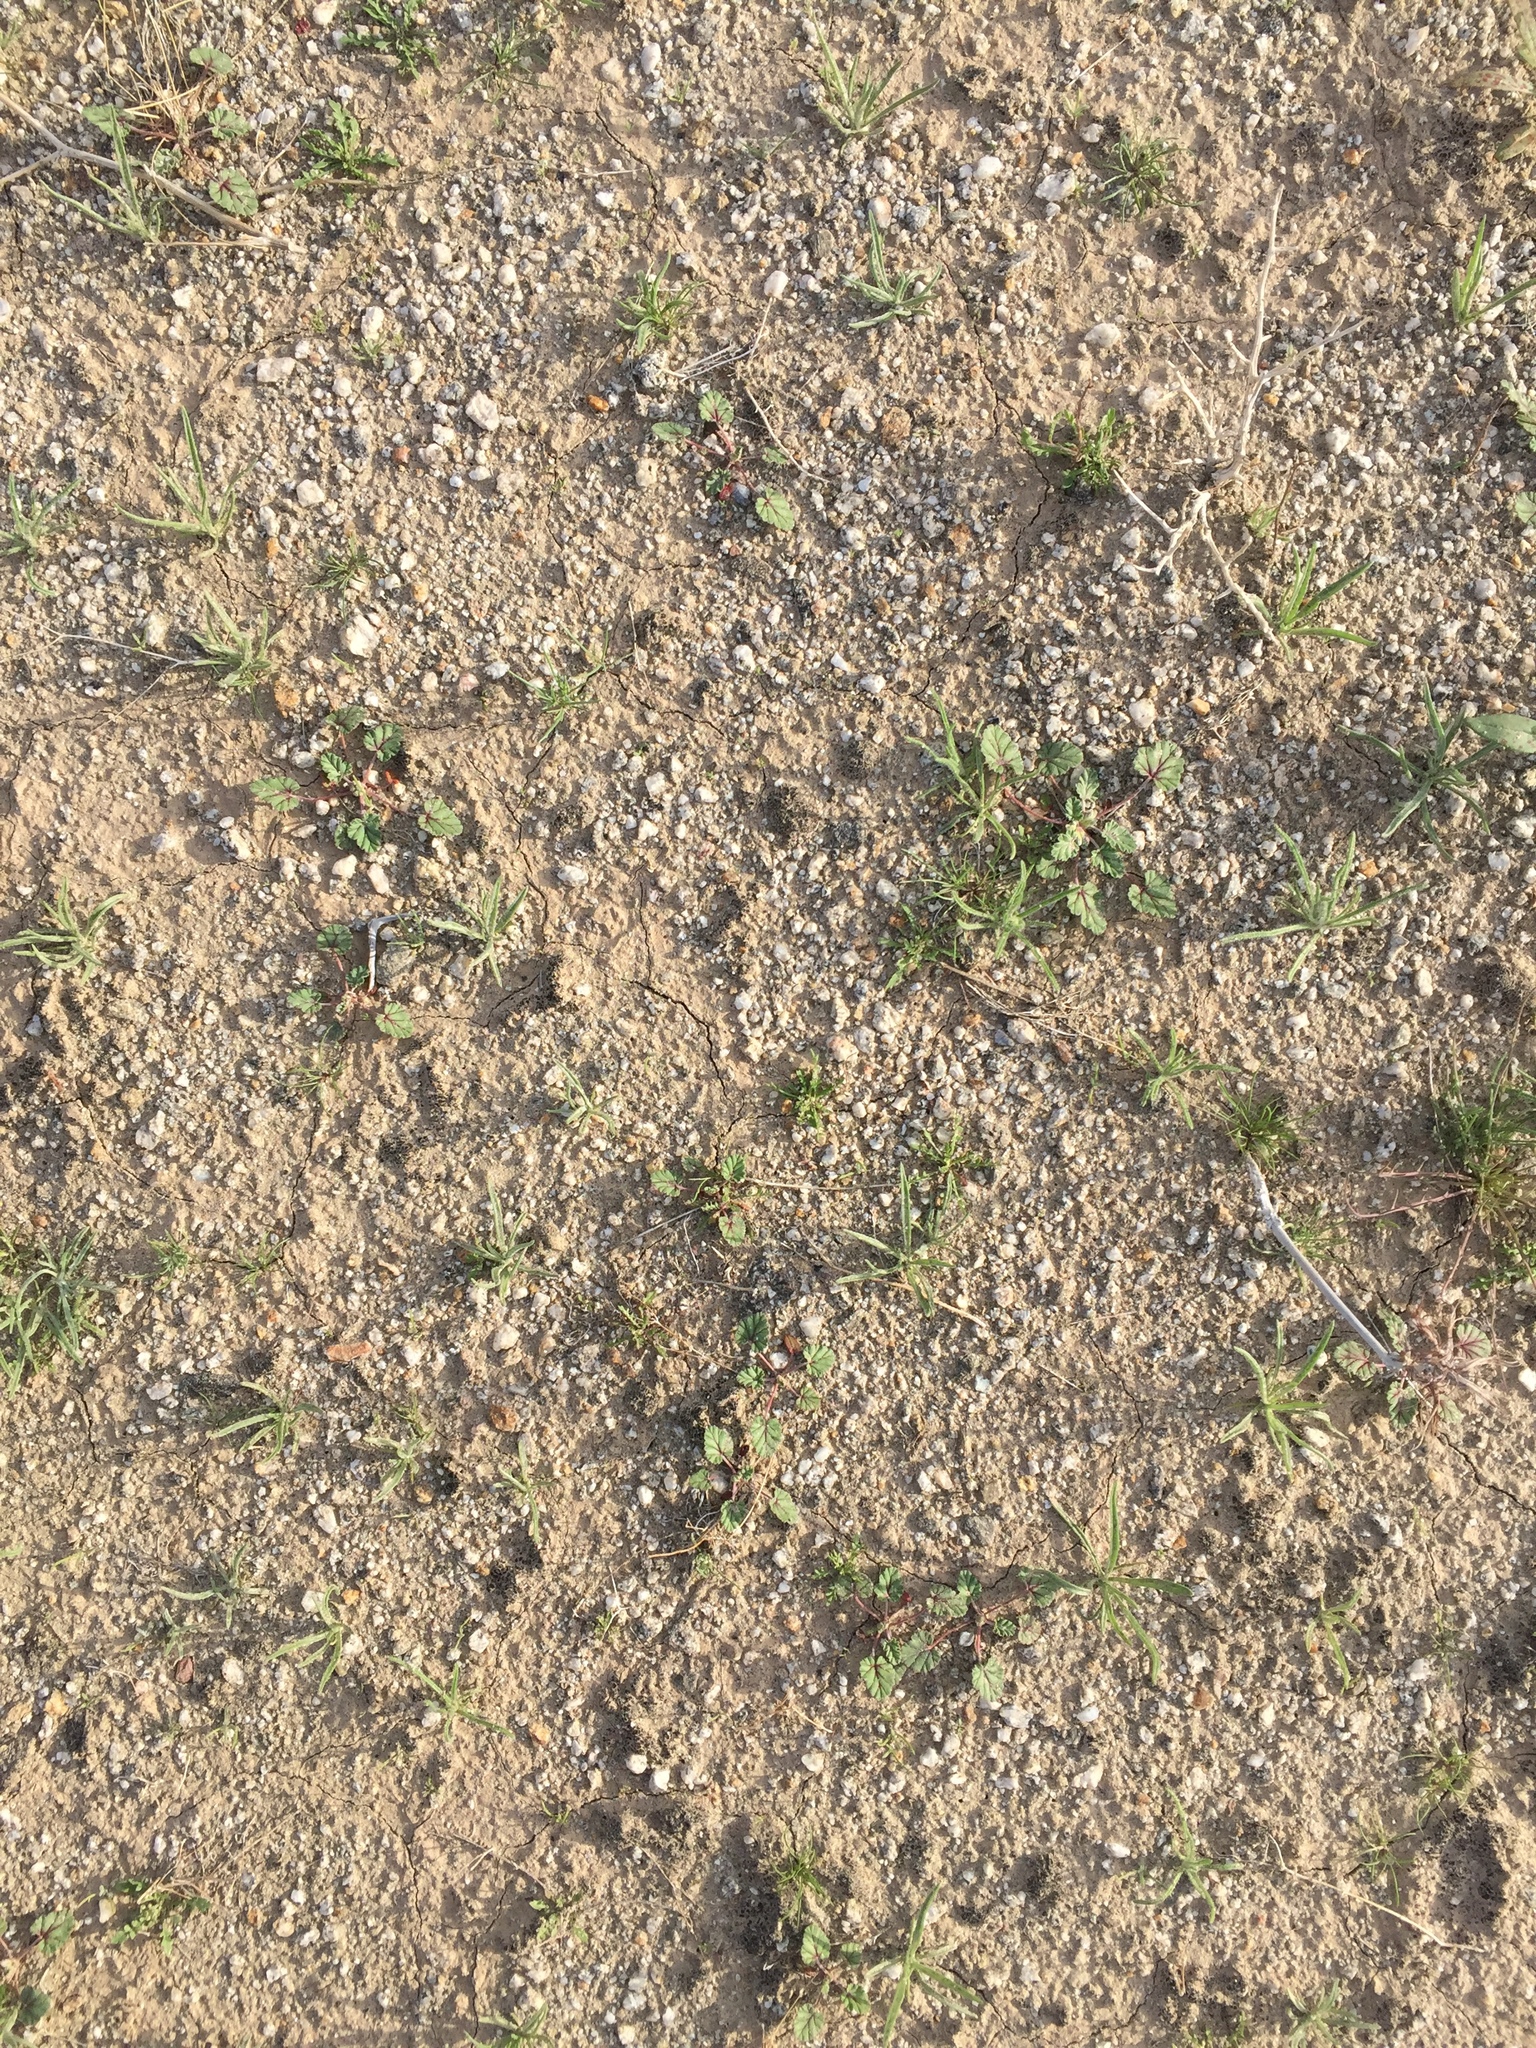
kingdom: Plantae
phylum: Tracheophyta
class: Magnoliopsida
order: Geraniales
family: Geraniaceae
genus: Erodium
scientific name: Erodium texanum
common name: Texas stork's-bill
